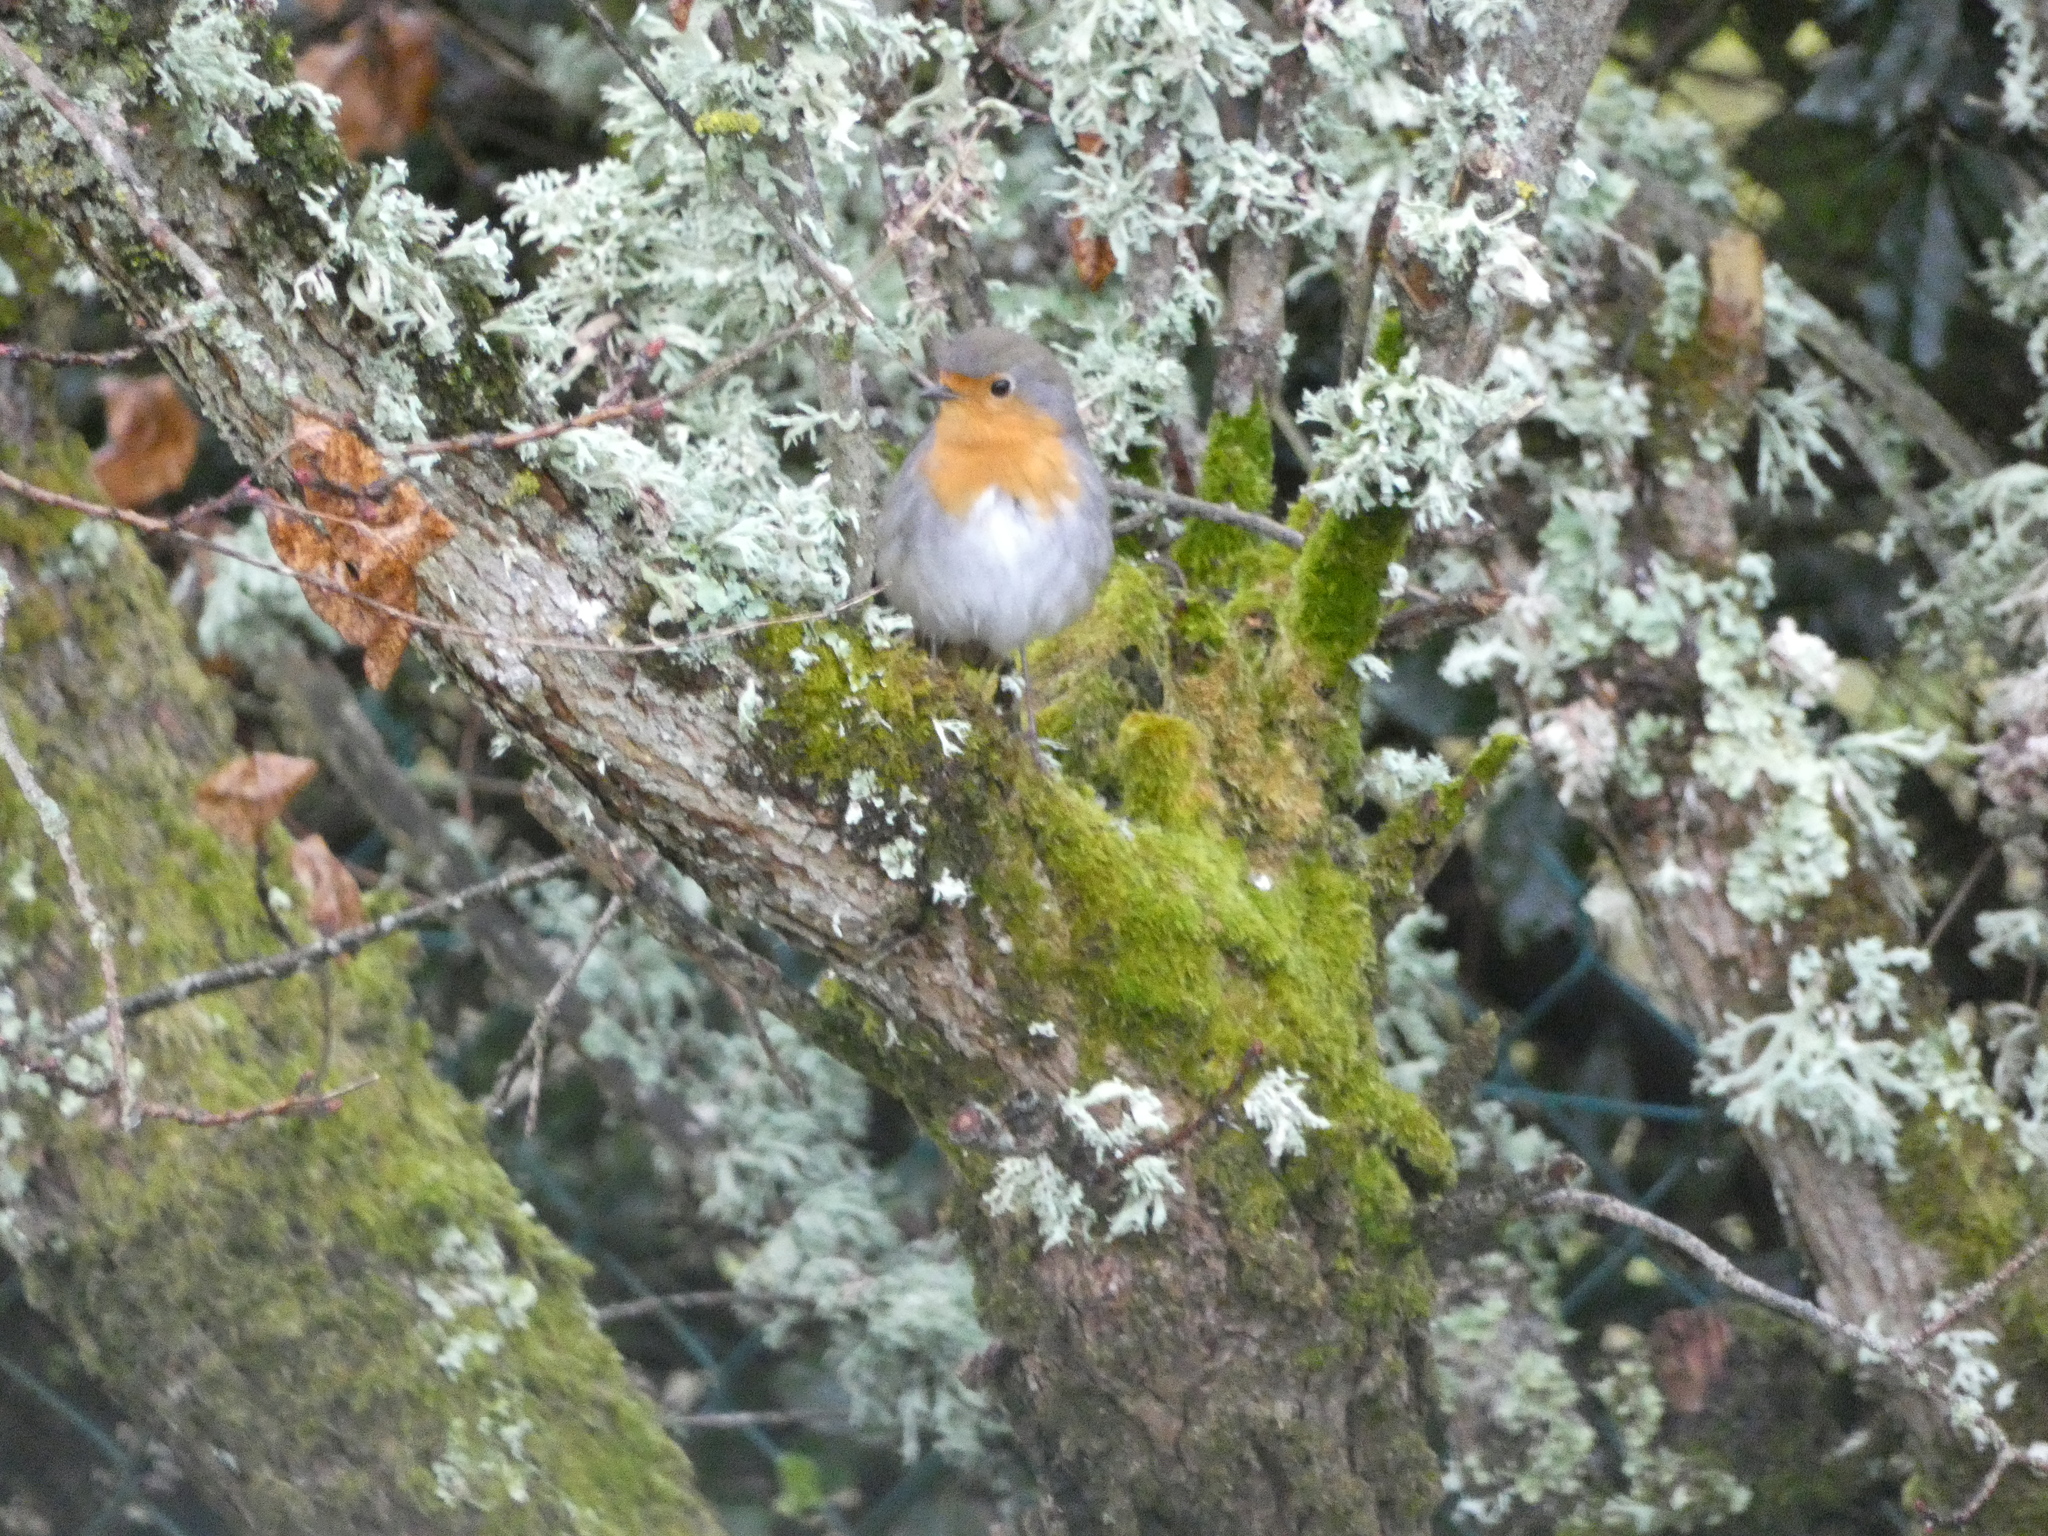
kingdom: Animalia
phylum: Chordata
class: Aves
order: Passeriformes
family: Muscicapidae
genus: Erithacus
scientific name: Erithacus rubecula
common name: European robin
